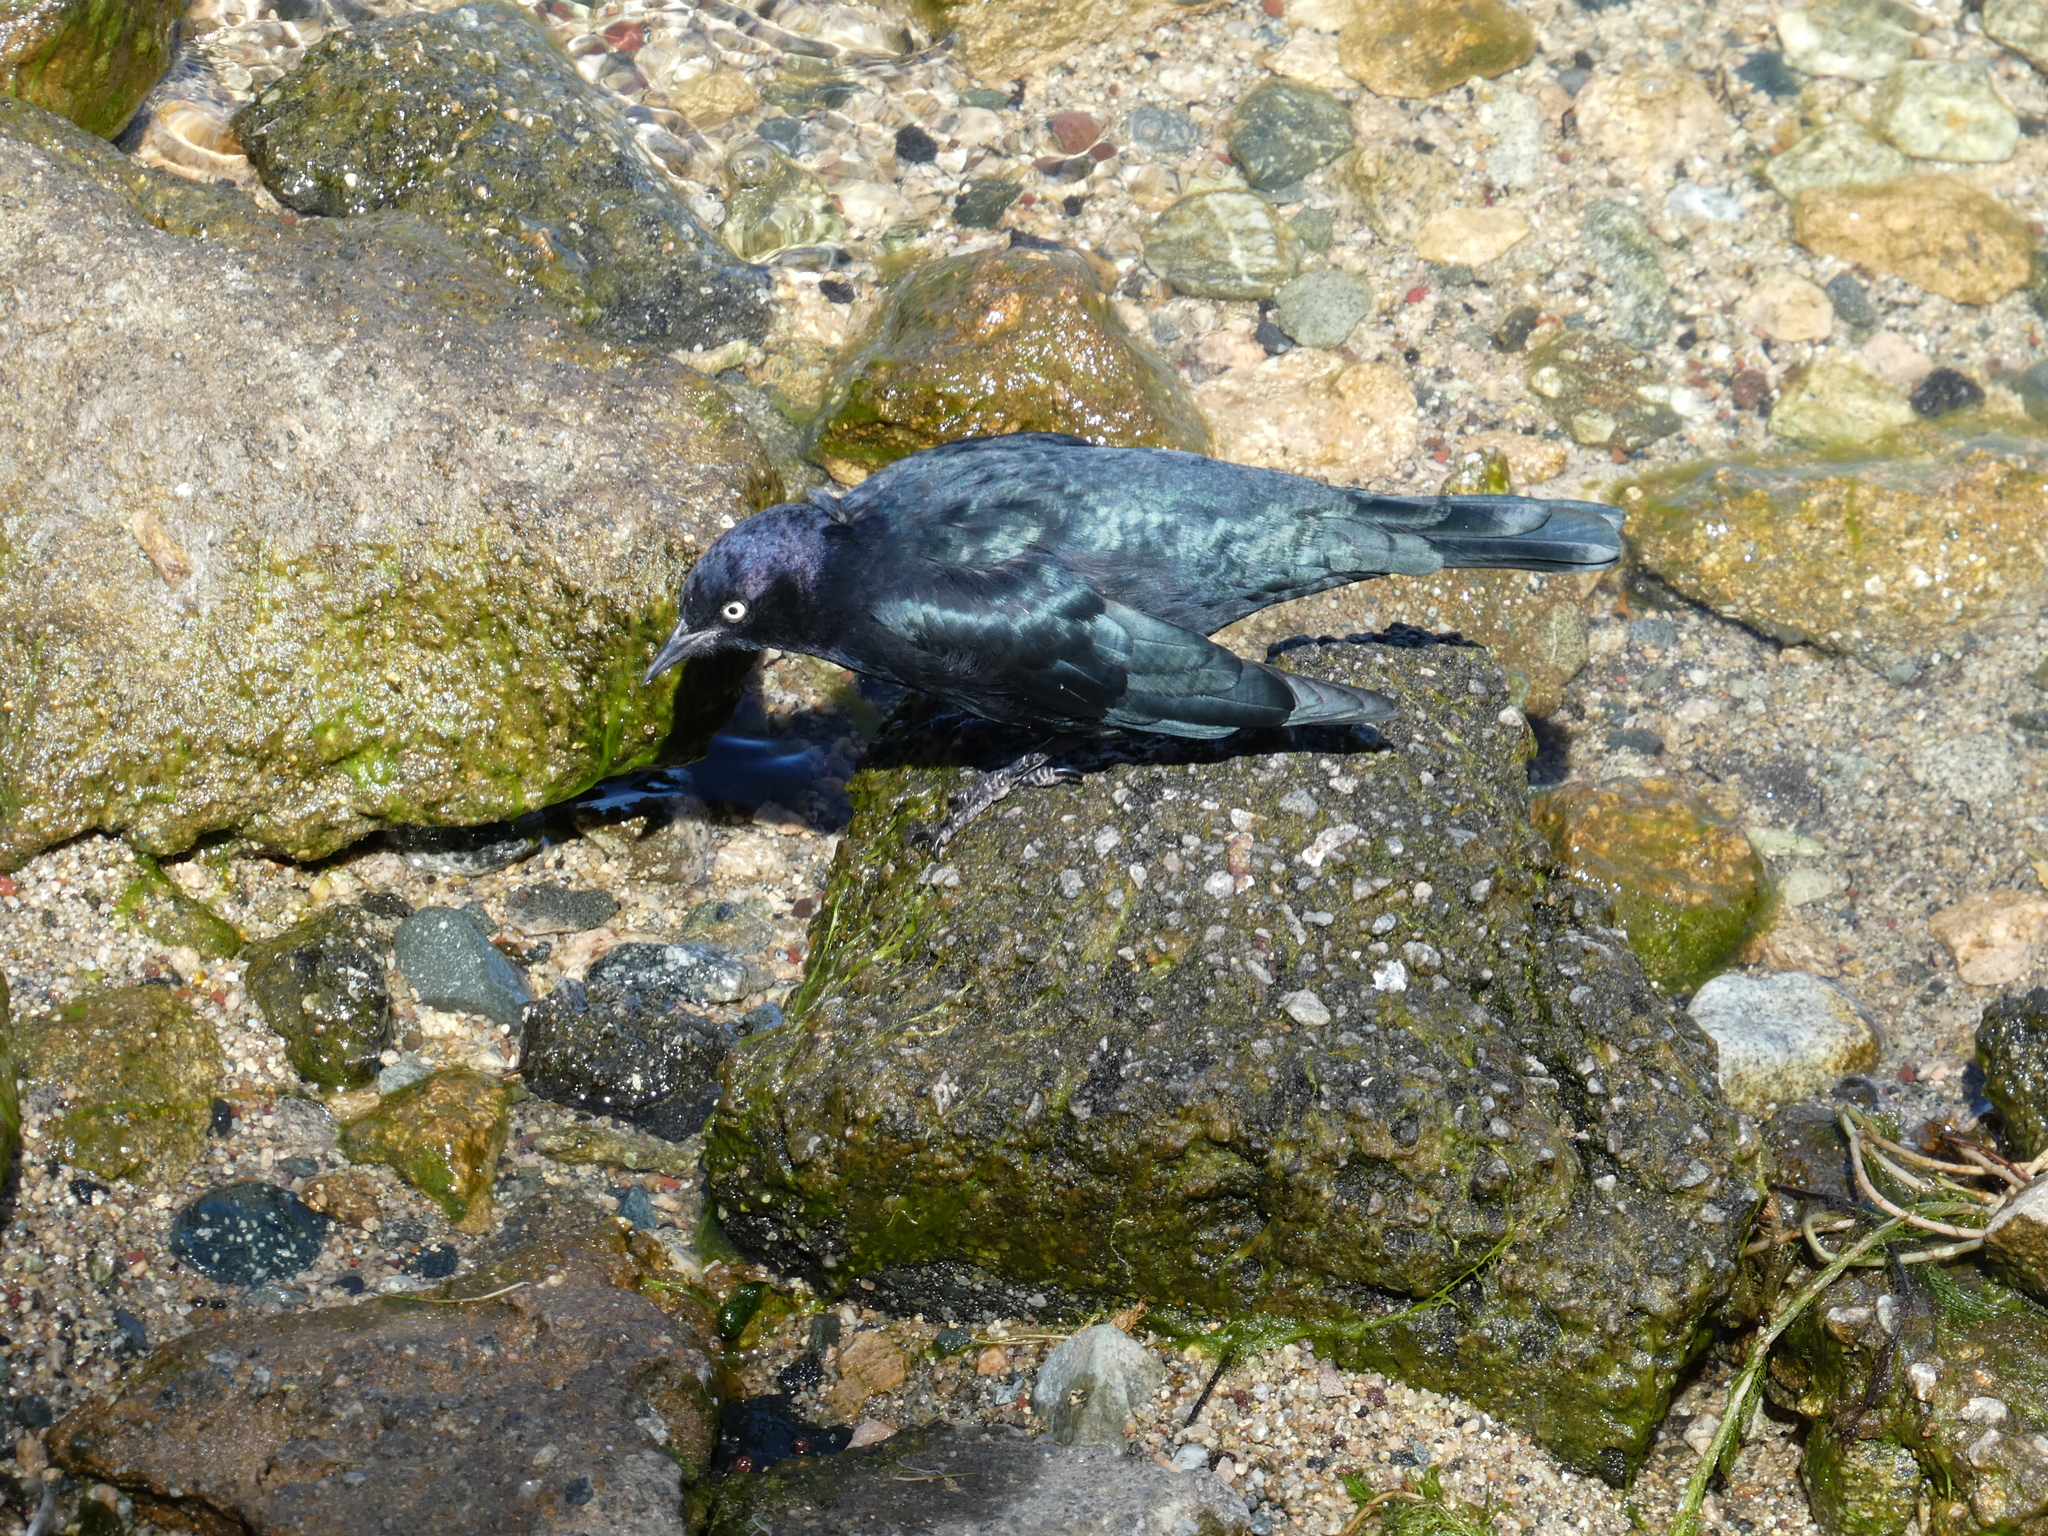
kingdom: Animalia
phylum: Chordata
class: Aves
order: Passeriformes
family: Icteridae
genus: Euphagus
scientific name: Euphagus cyanocephalus
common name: Brewer's blackbird
